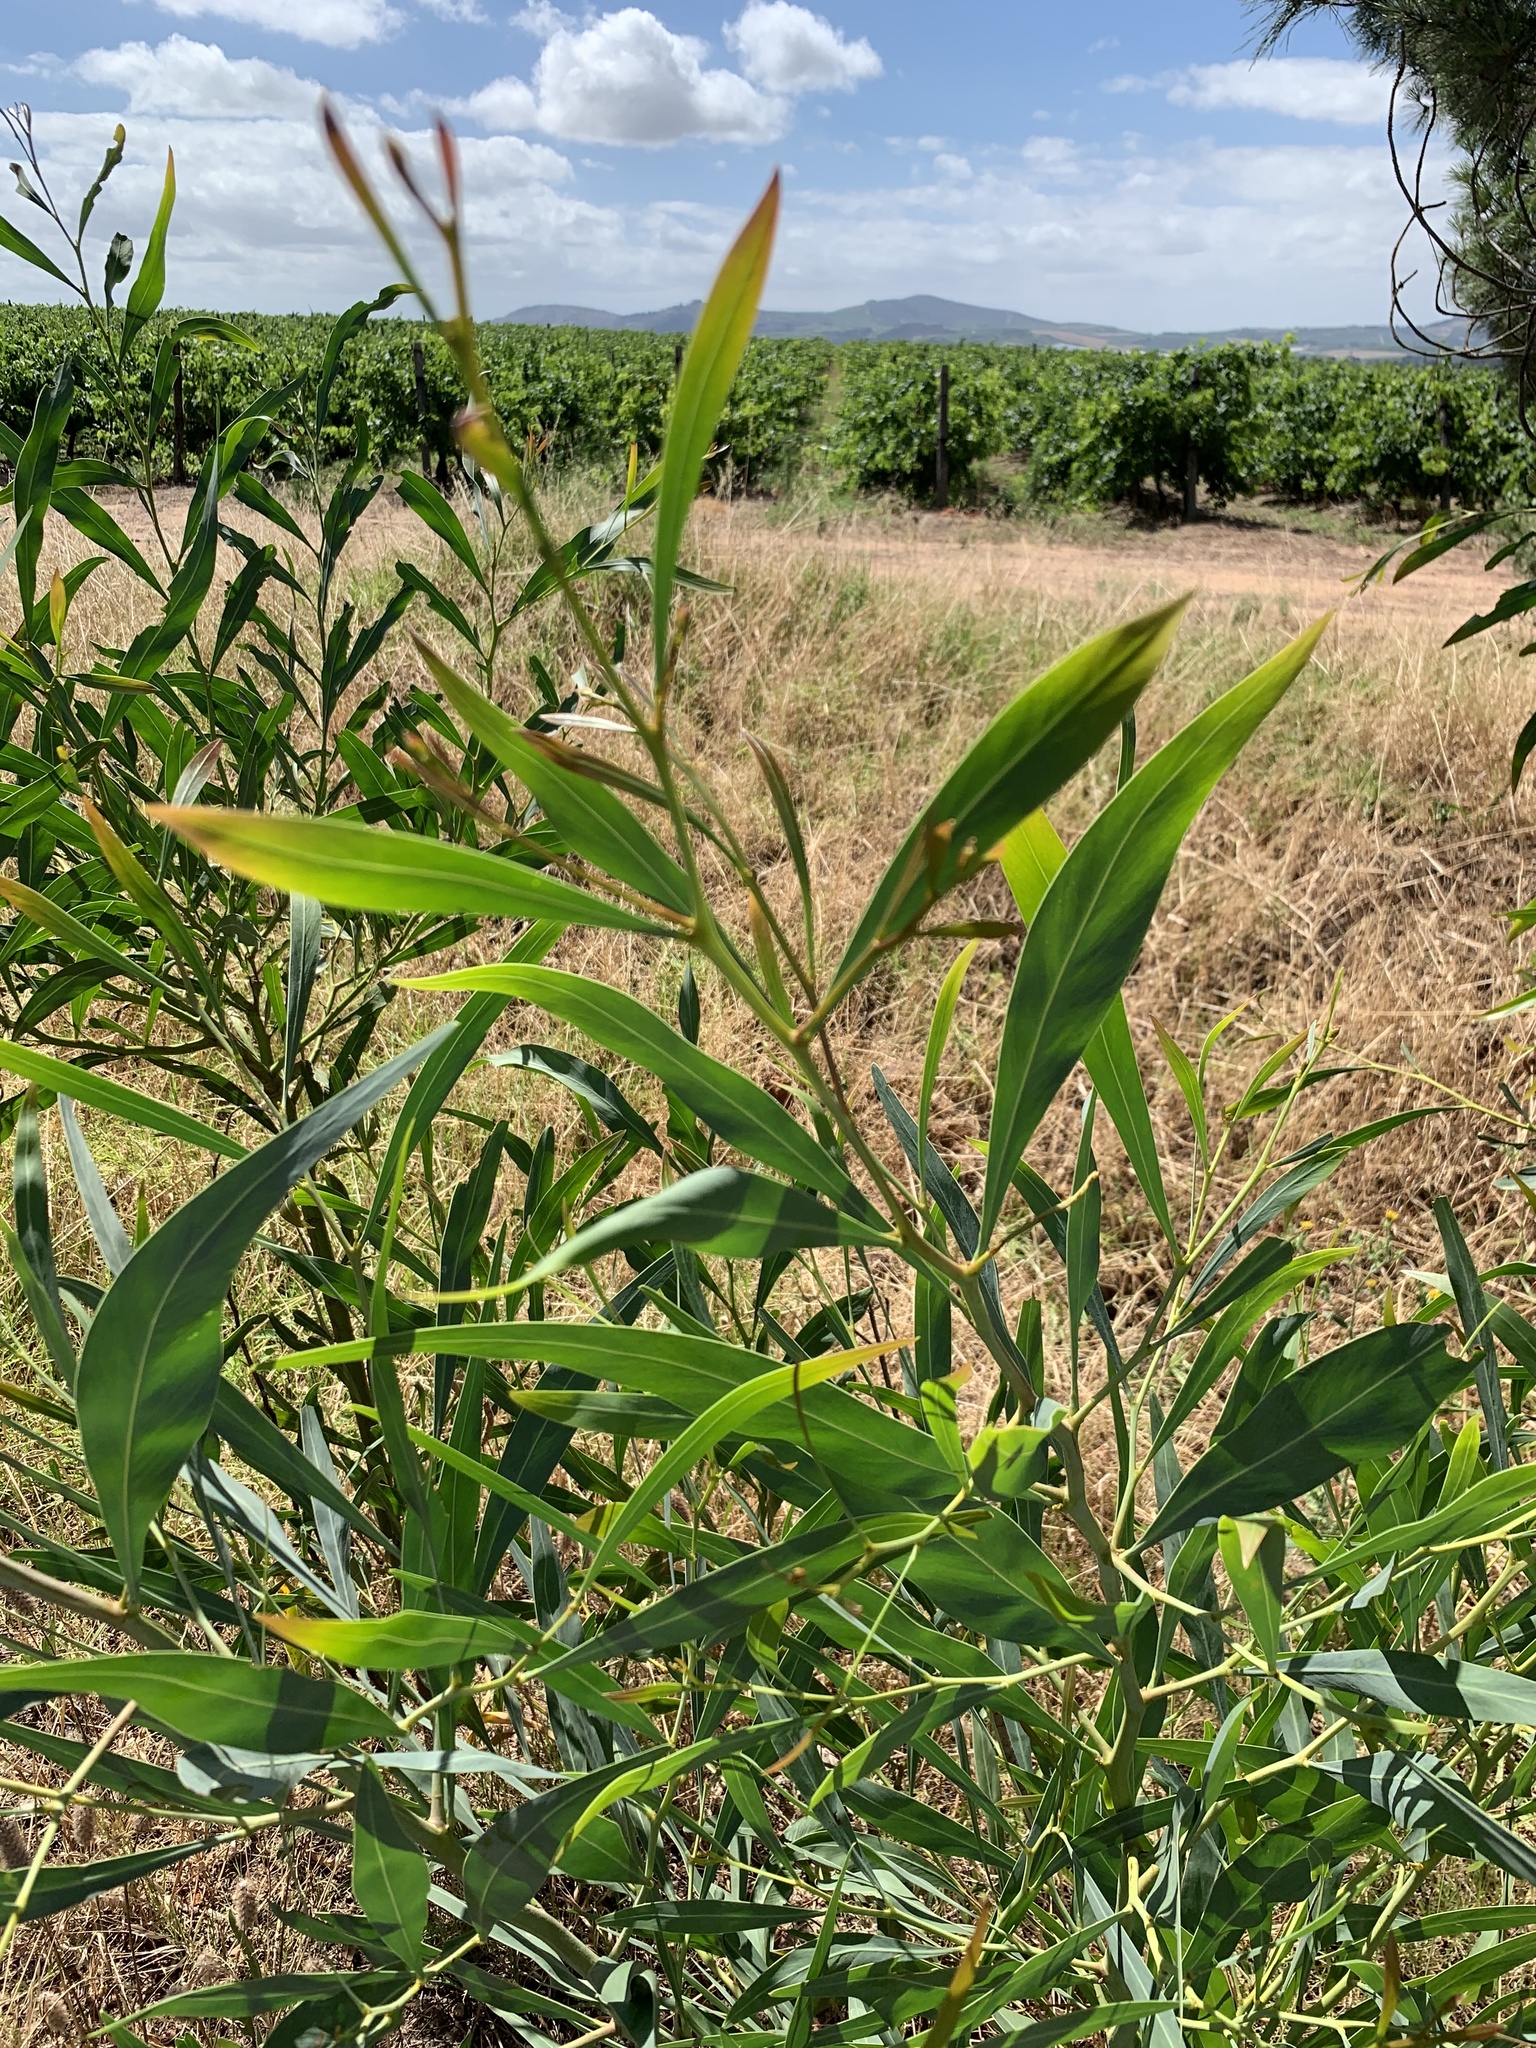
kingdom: Plantae
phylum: Tracheophyta
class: Magnoliopsida
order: Fabales
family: Fabaceae
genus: Acacia
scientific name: Acacia saligna
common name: Orange wattle
